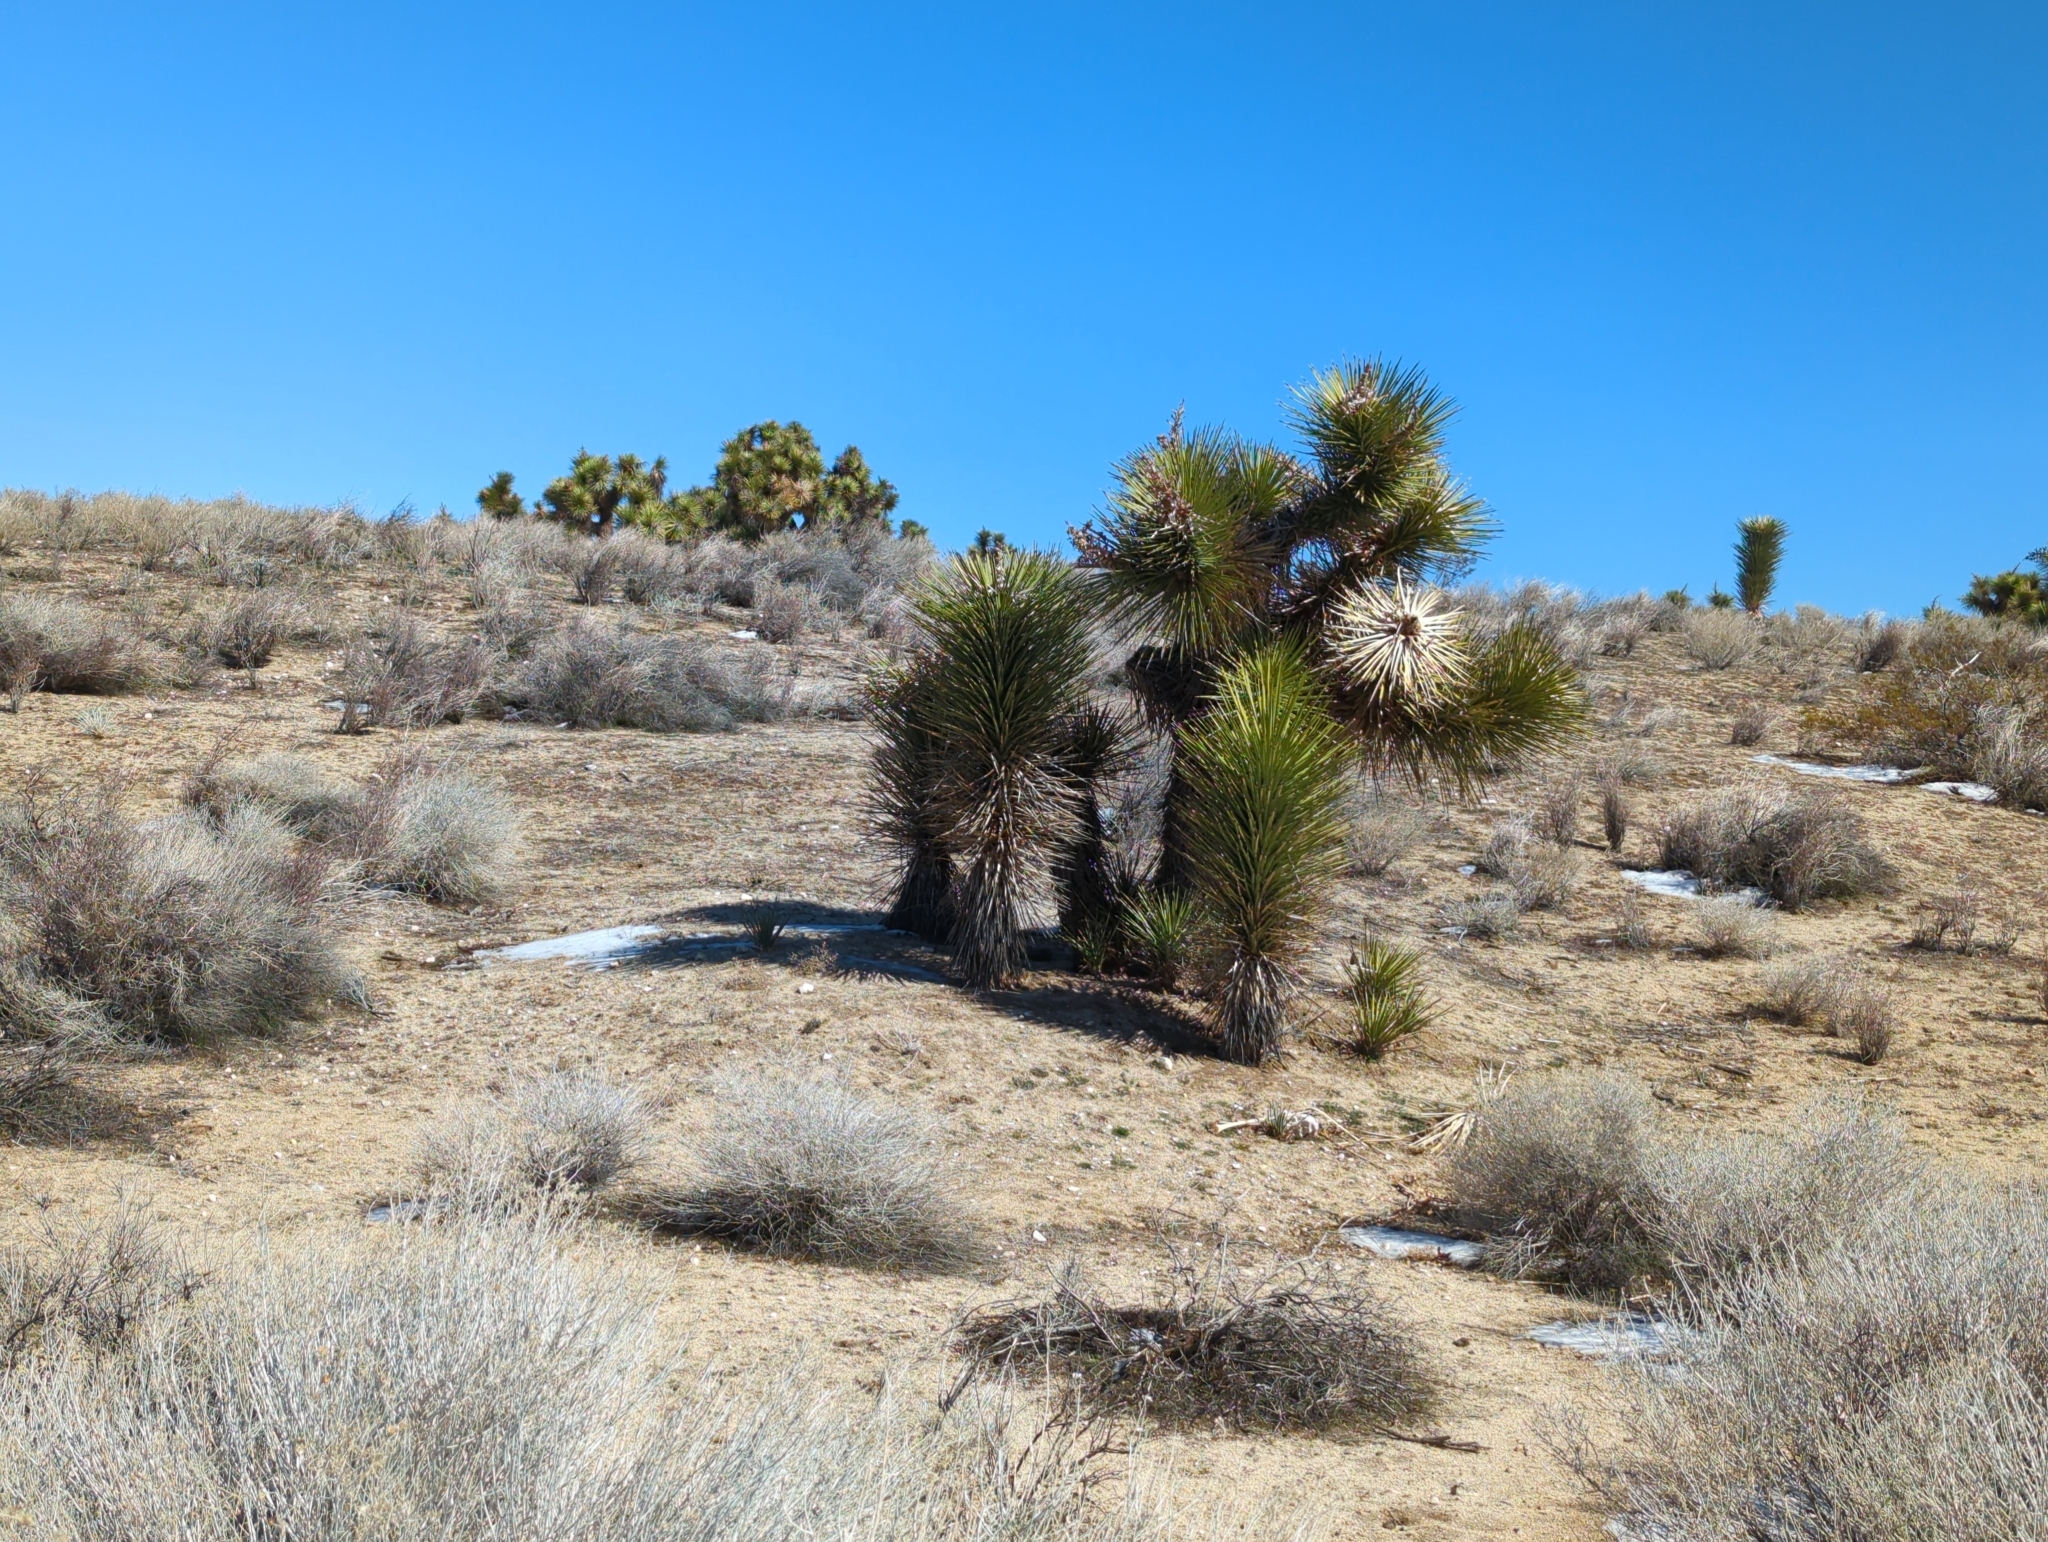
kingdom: Plantae
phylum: Tracheophyta
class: Liliopsida
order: Asparagales
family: Asparagaceae
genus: Yucca
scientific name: Yucca brevifolia
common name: Joshua tree
